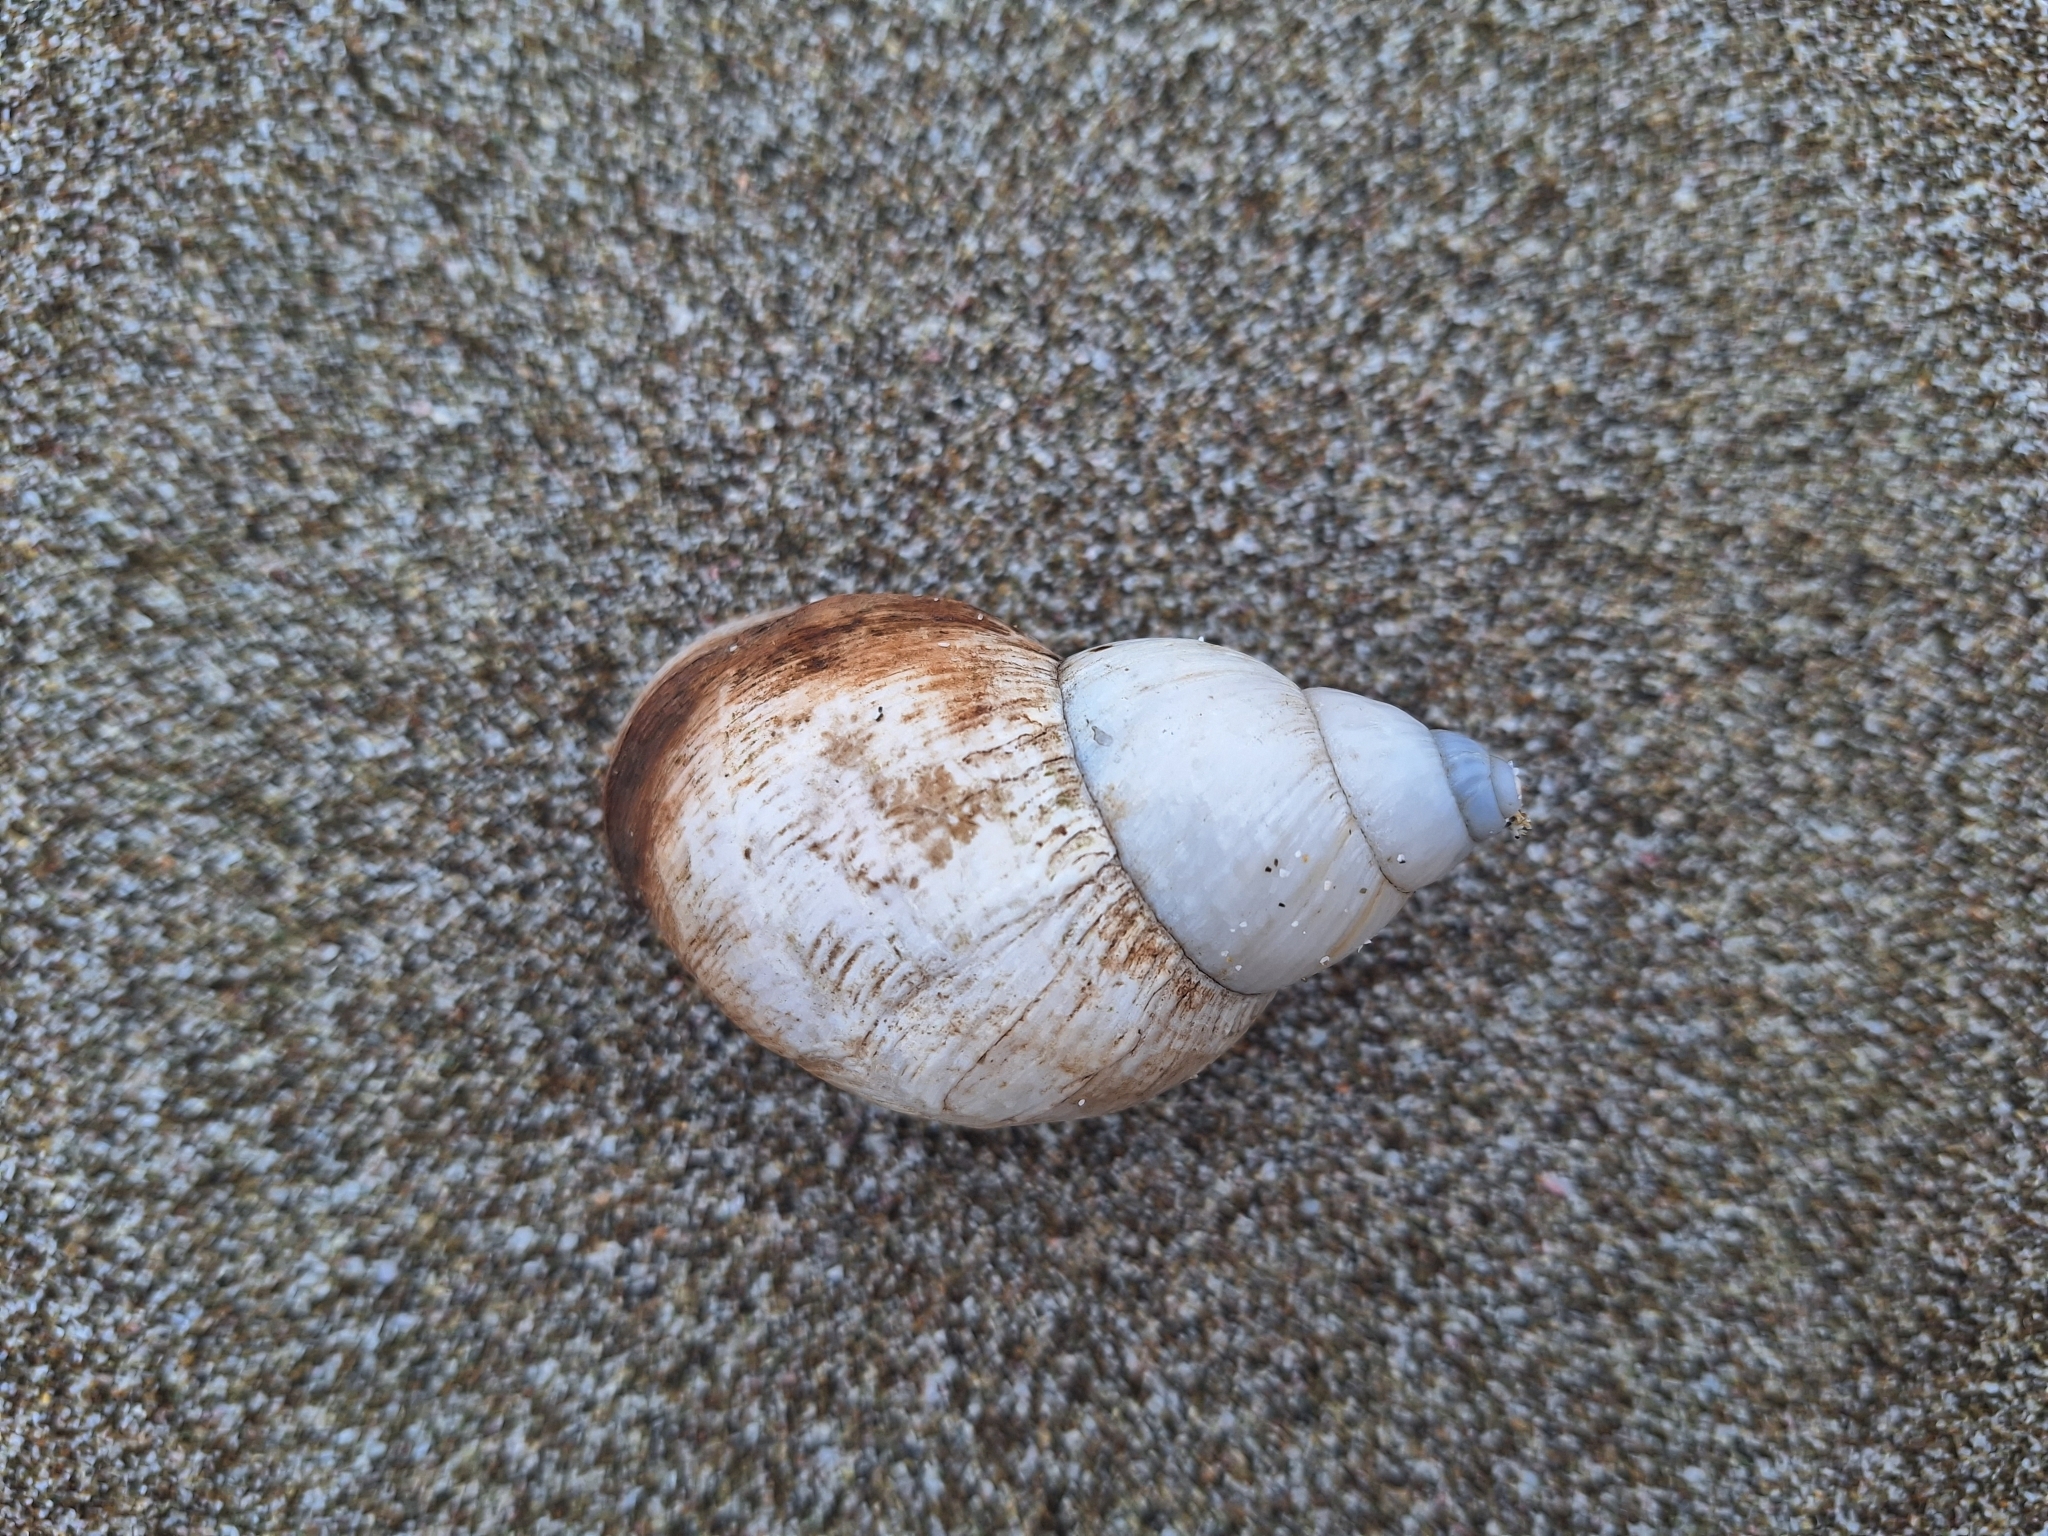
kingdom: Animalia
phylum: Arthropoda
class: Malacostraca
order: Decapoda
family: Coenobitidae
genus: Coenobita
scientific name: Coenobita compressus
